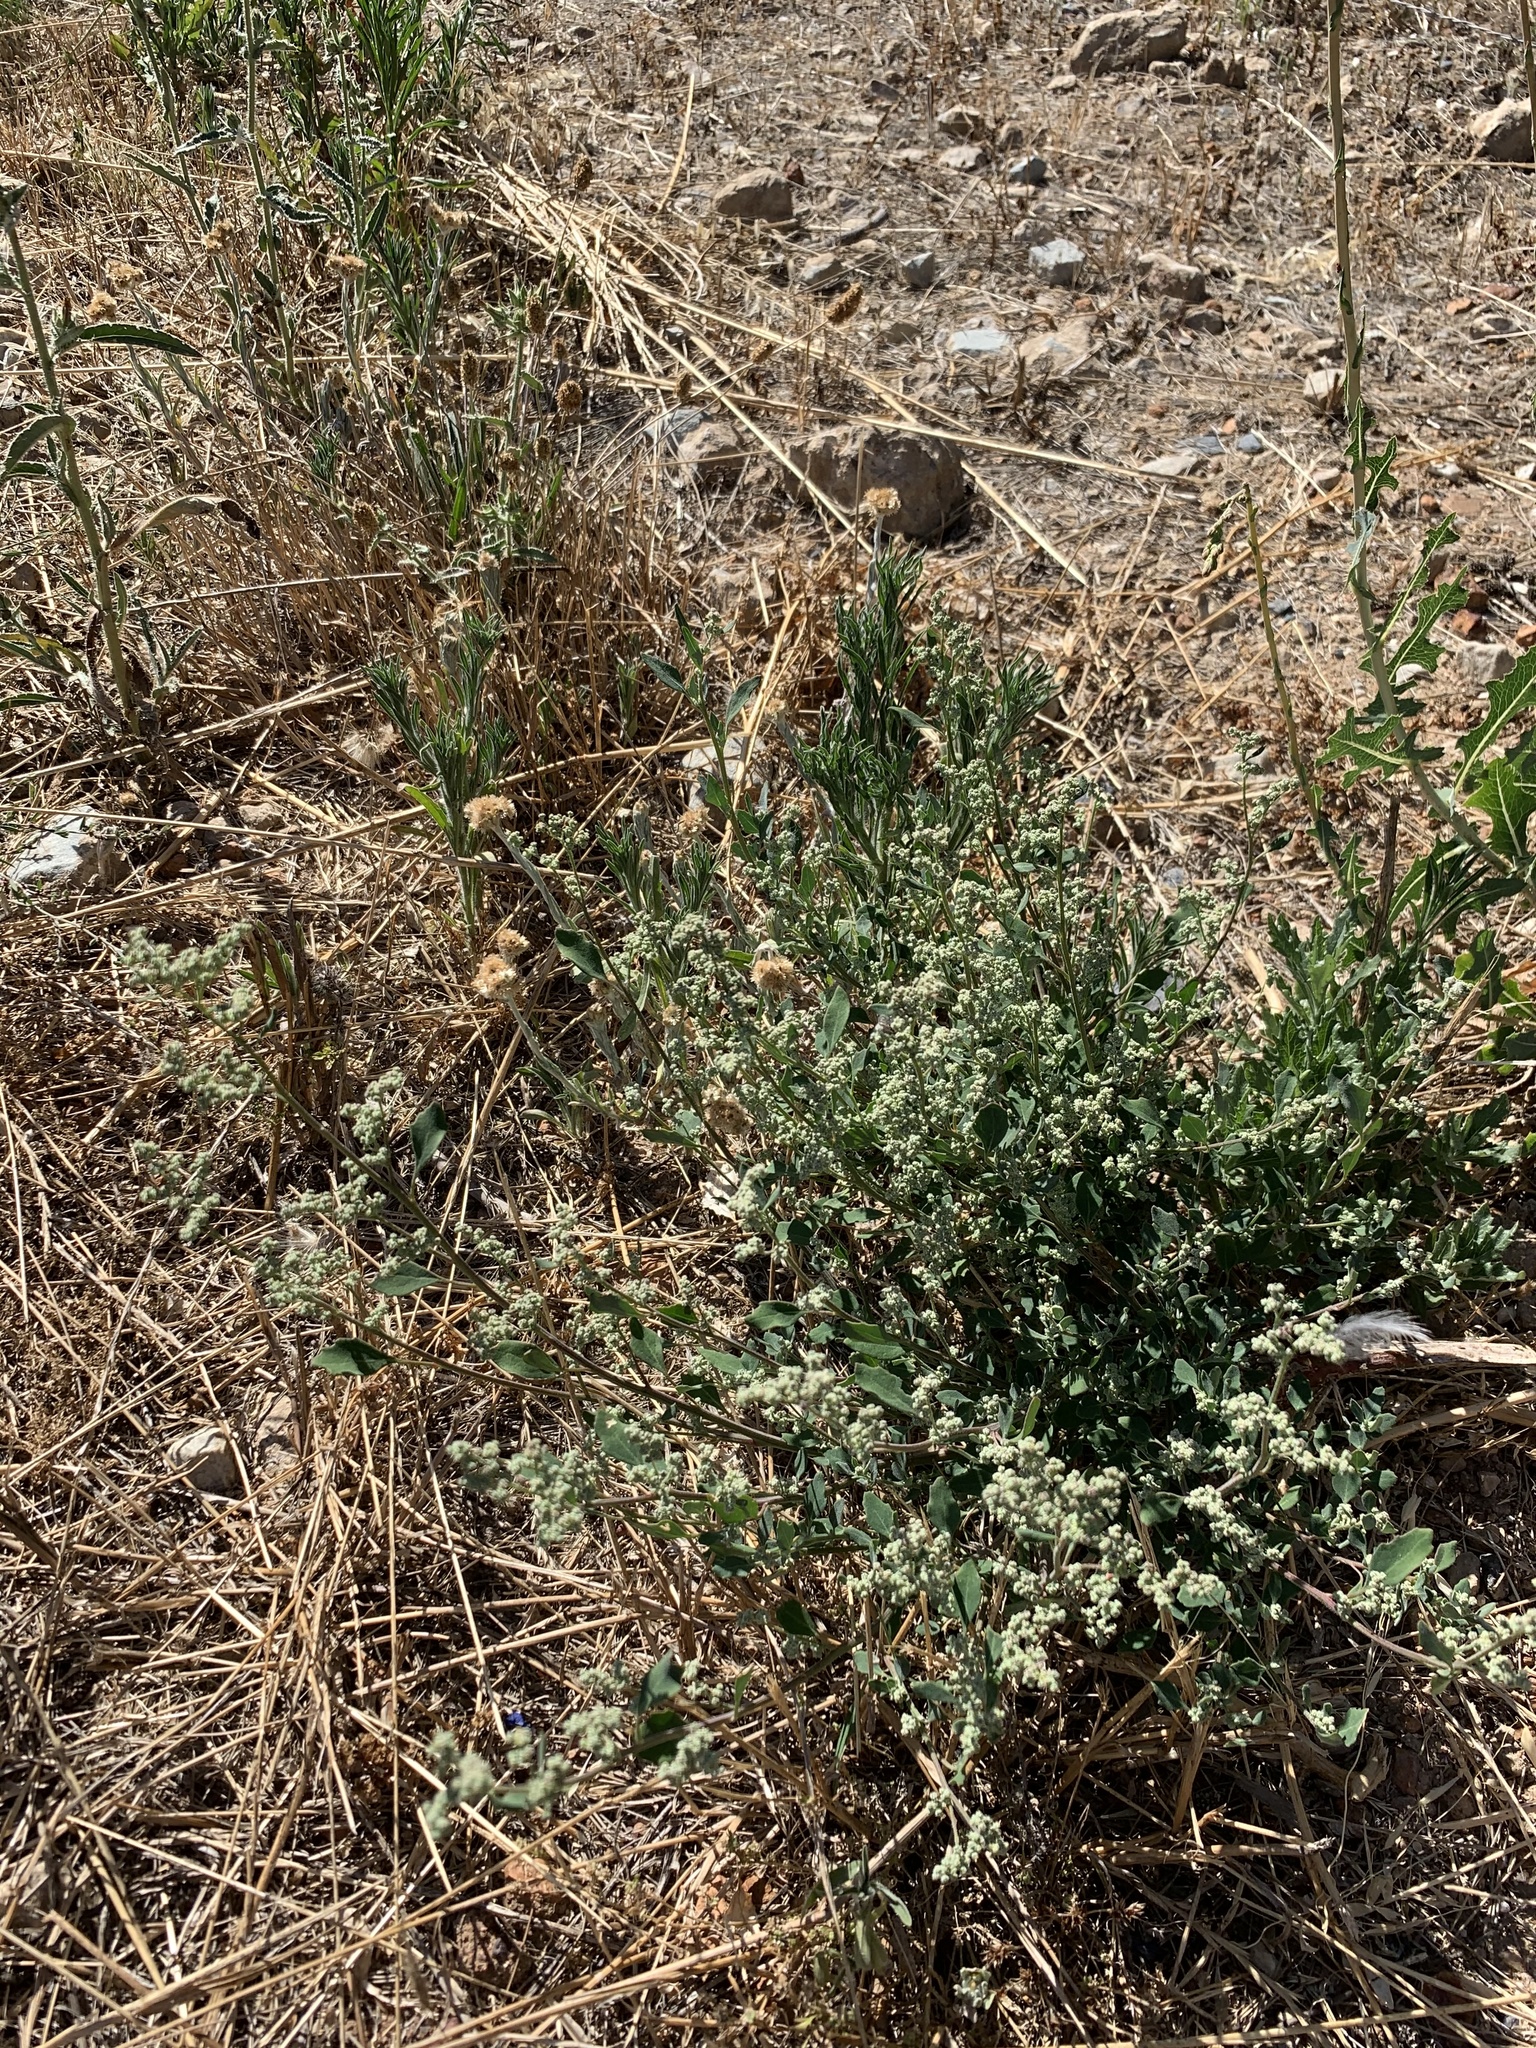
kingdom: Plantae
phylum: Tracheophyta
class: Magnoliopsida
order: Caryophyllales
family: Amaranthaceae
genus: Chenopodiastrum
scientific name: Chenopodiastrum murale
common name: Sowbane
